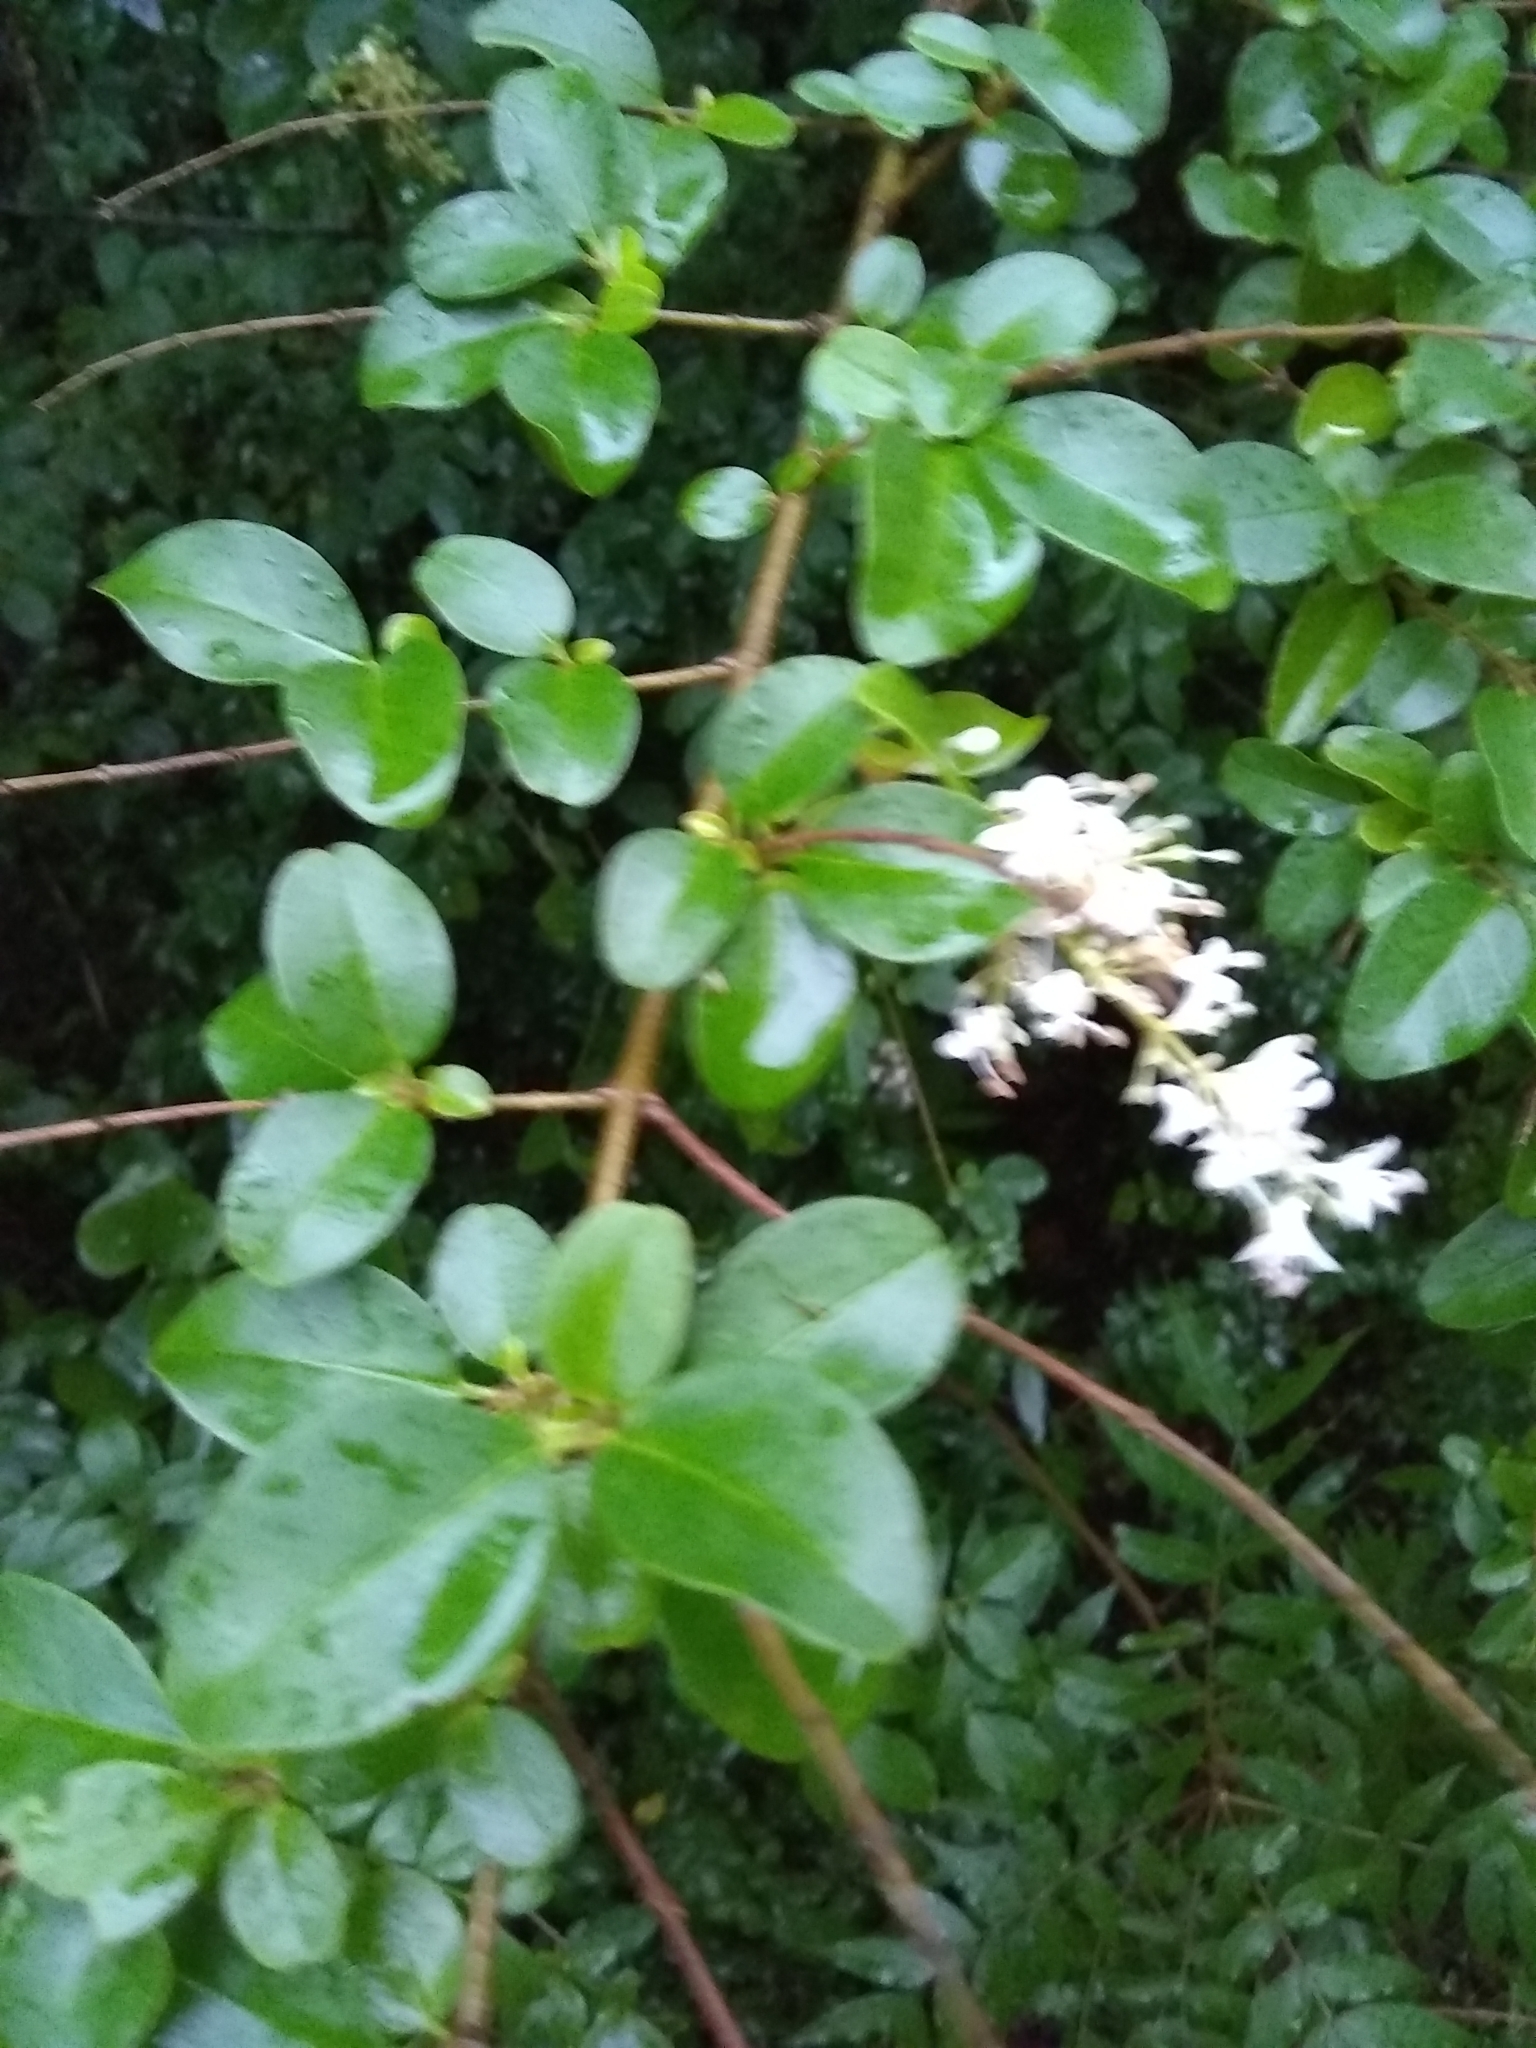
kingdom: Plantae
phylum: Tracheophyta
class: Magnoliopsida
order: Lamiales
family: Oleaceae
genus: Ligustrum
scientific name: Ligustrum sinense
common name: Chinese privet
